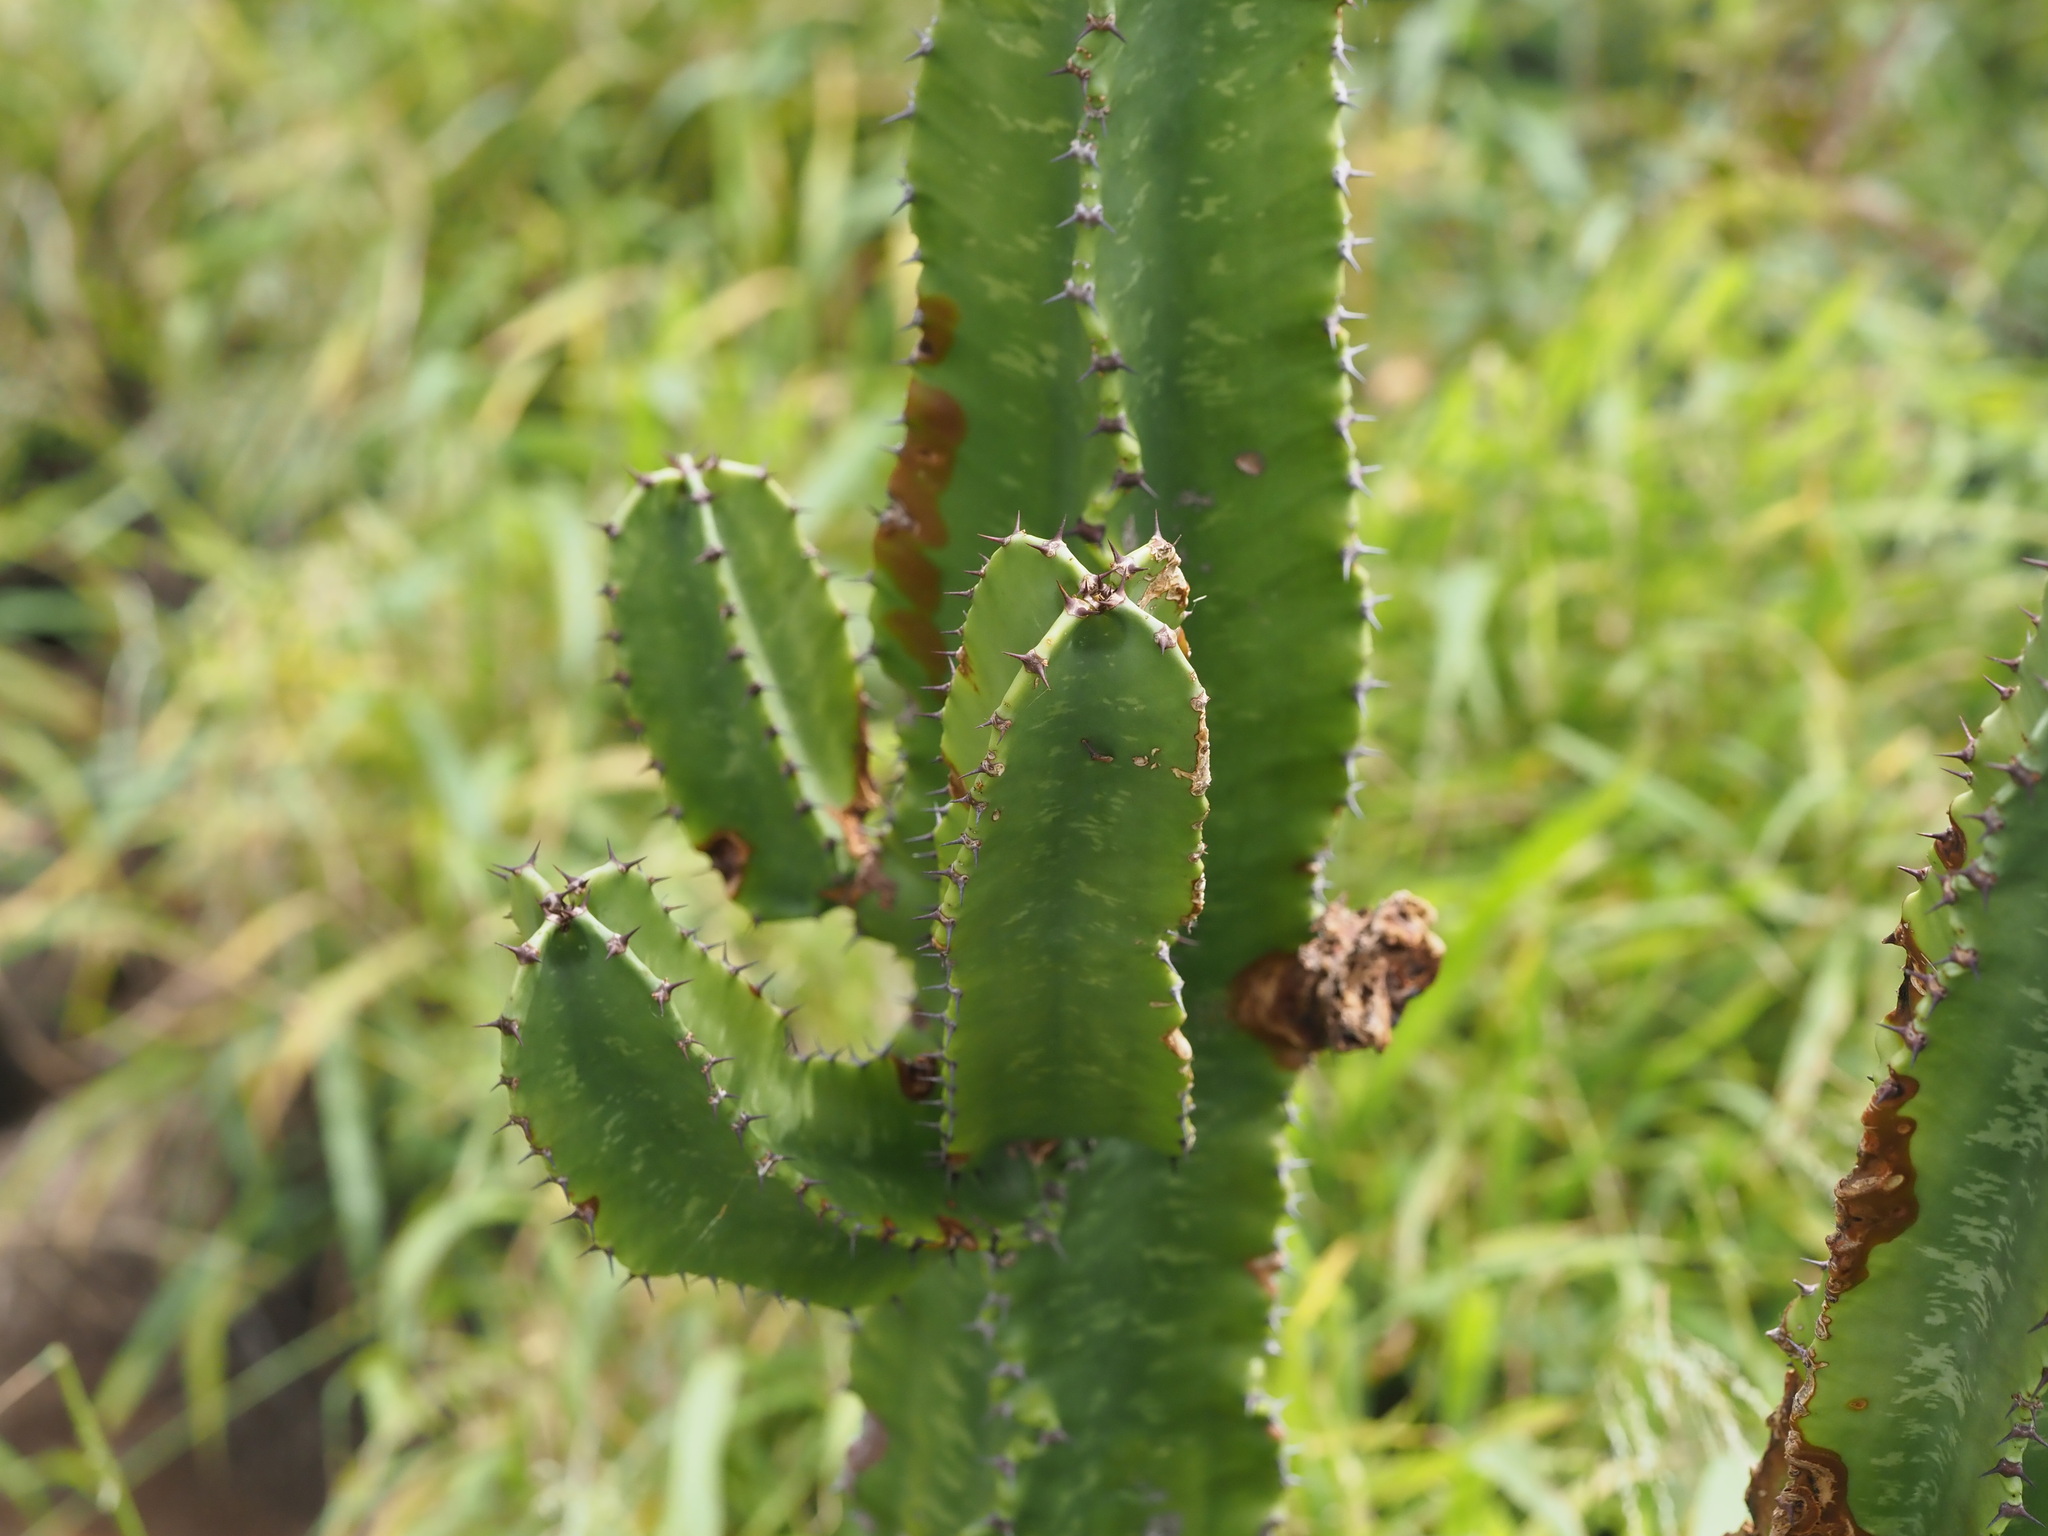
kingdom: Plantae
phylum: Tracheophyta
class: Magnoliopsida
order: Malpighiales
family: Euphorbiaceae
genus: Euphorbia
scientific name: Euphorbia ingens
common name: Cactus spurge
